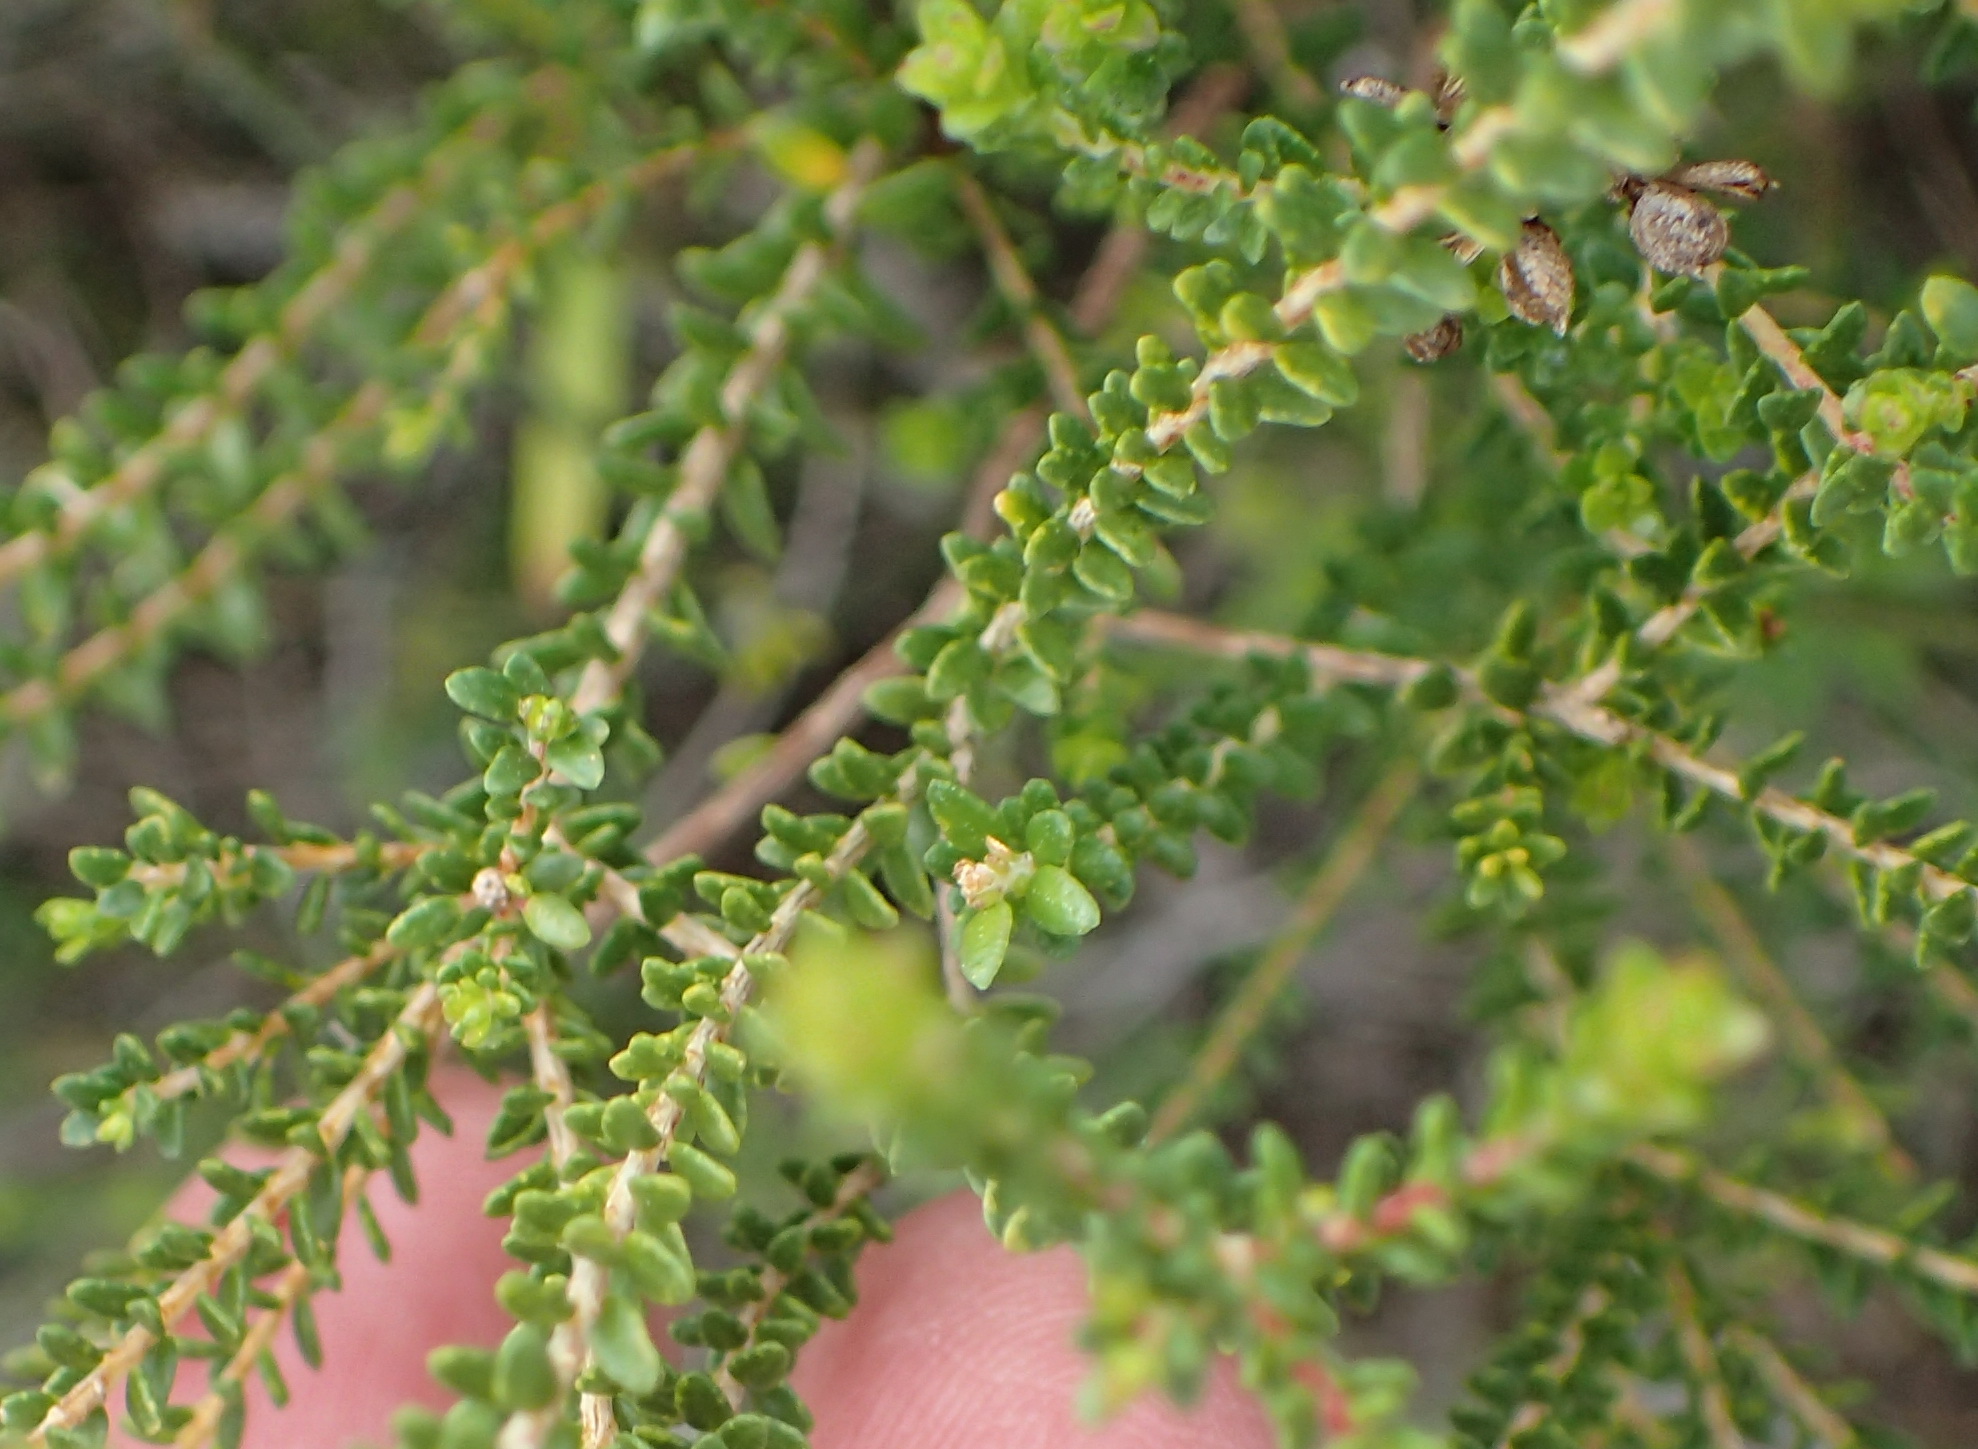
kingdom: Plantae
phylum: Tracheophyta
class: Magnoliopsida
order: Sapindales
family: Rutaceae
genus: Agathosma
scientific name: Agathosma capensis
